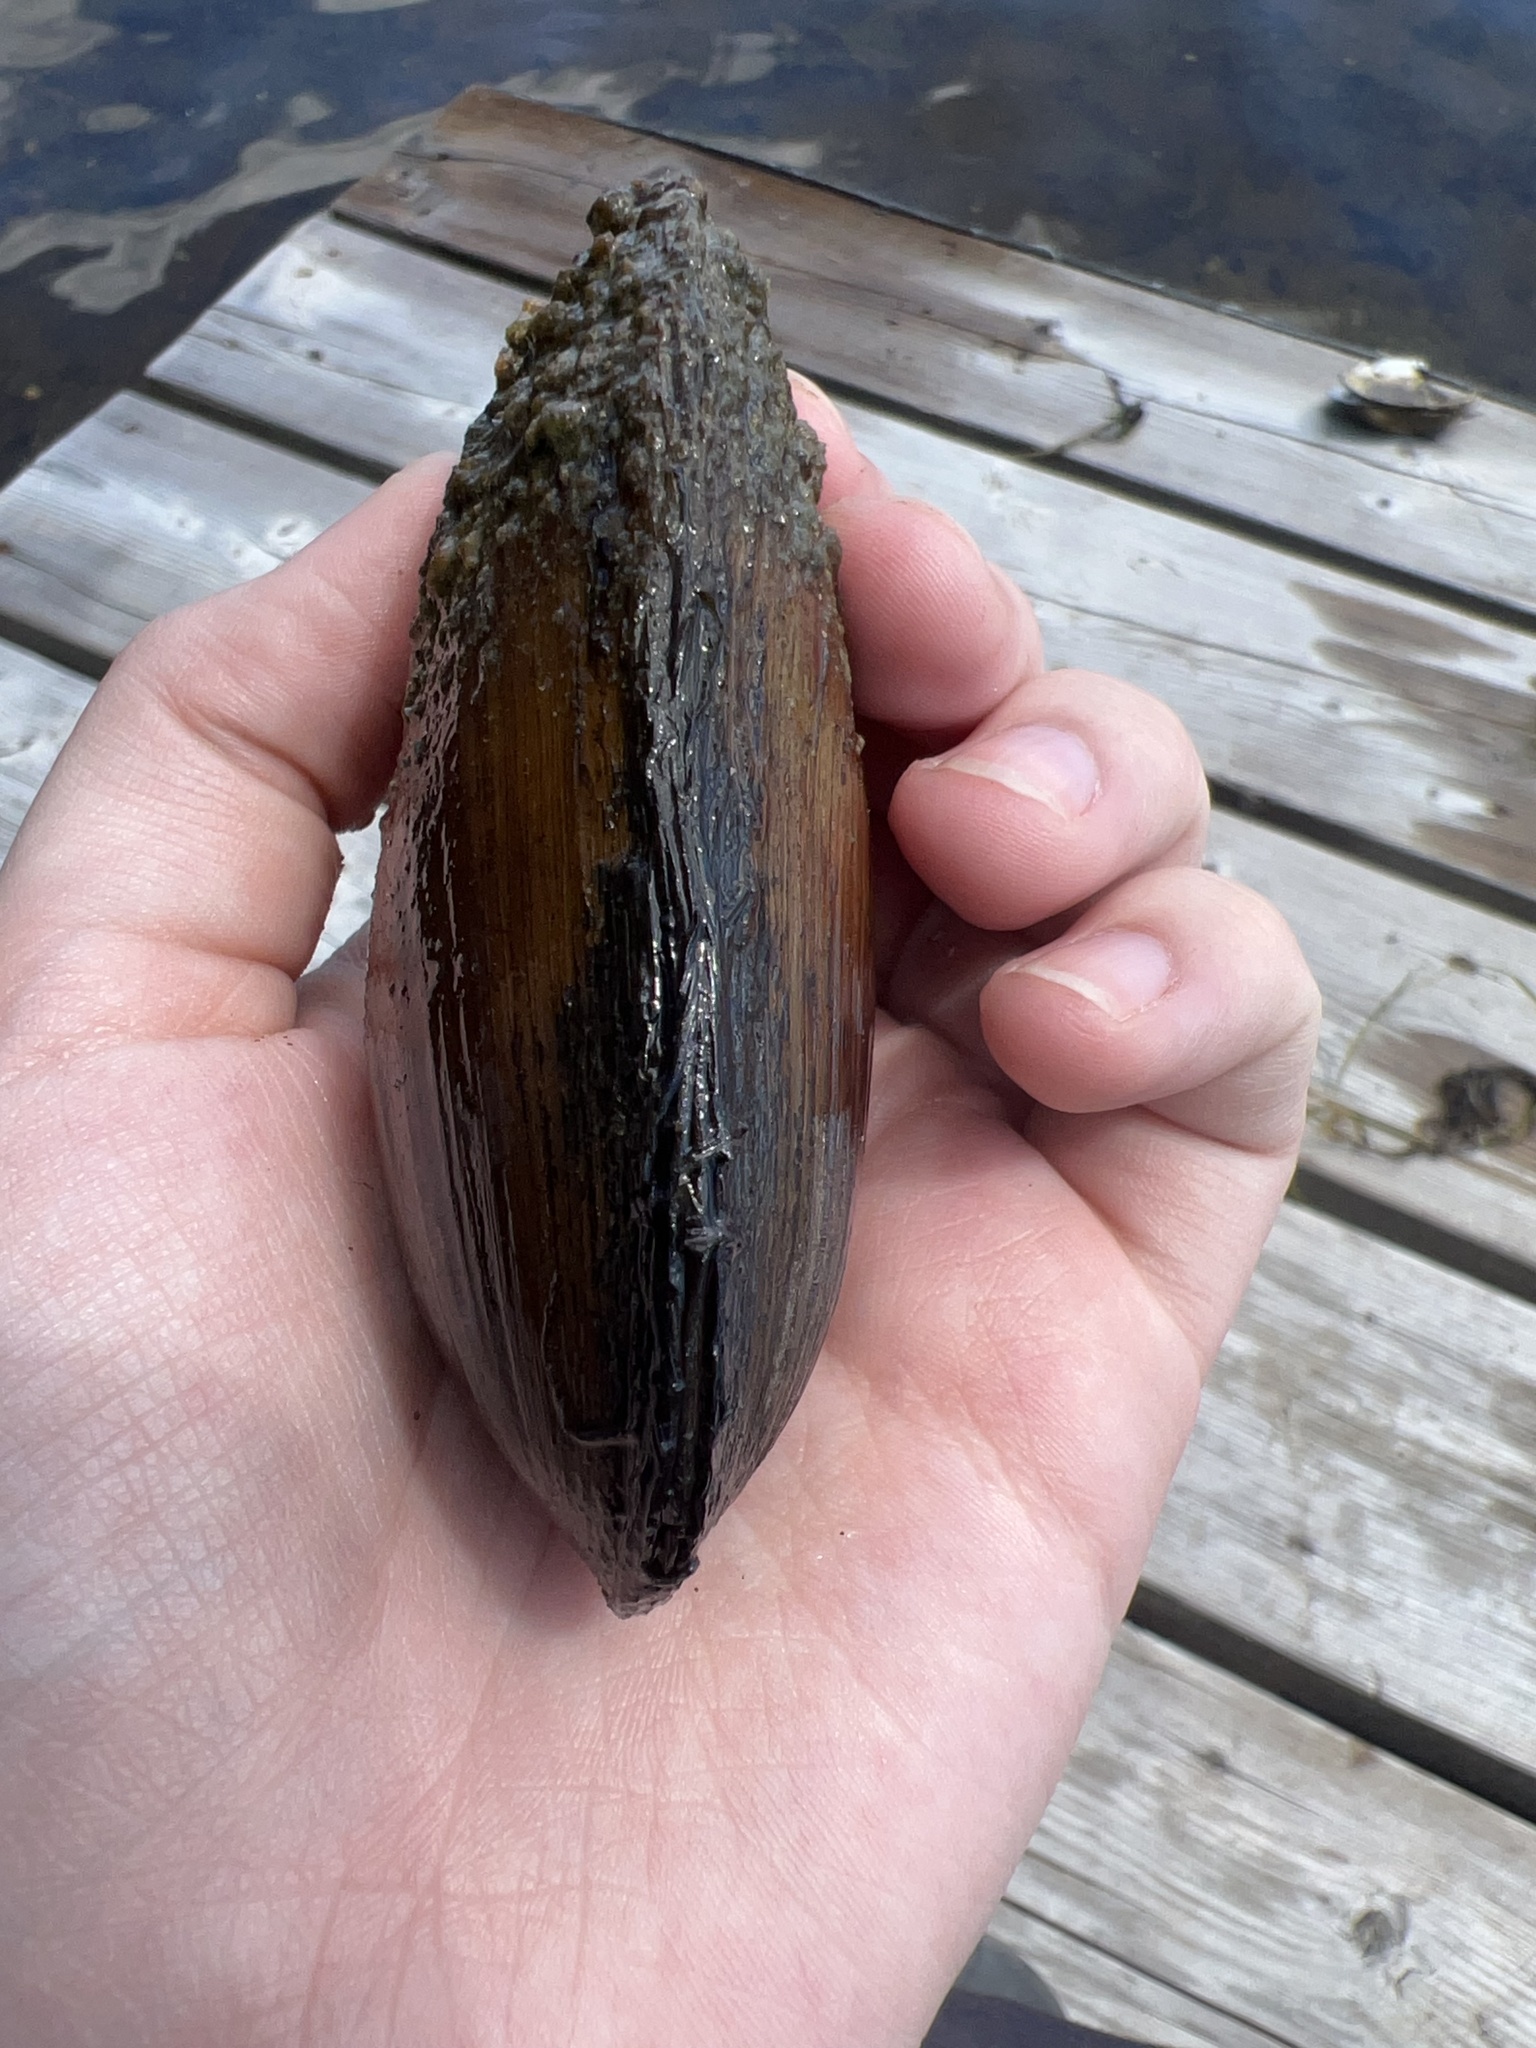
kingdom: Animalia
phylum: Mollusca
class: Bivalvia
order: Unionida
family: Unionidae
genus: Lampsilis
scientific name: Lampsilis siliquoidea
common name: Fatmucket
